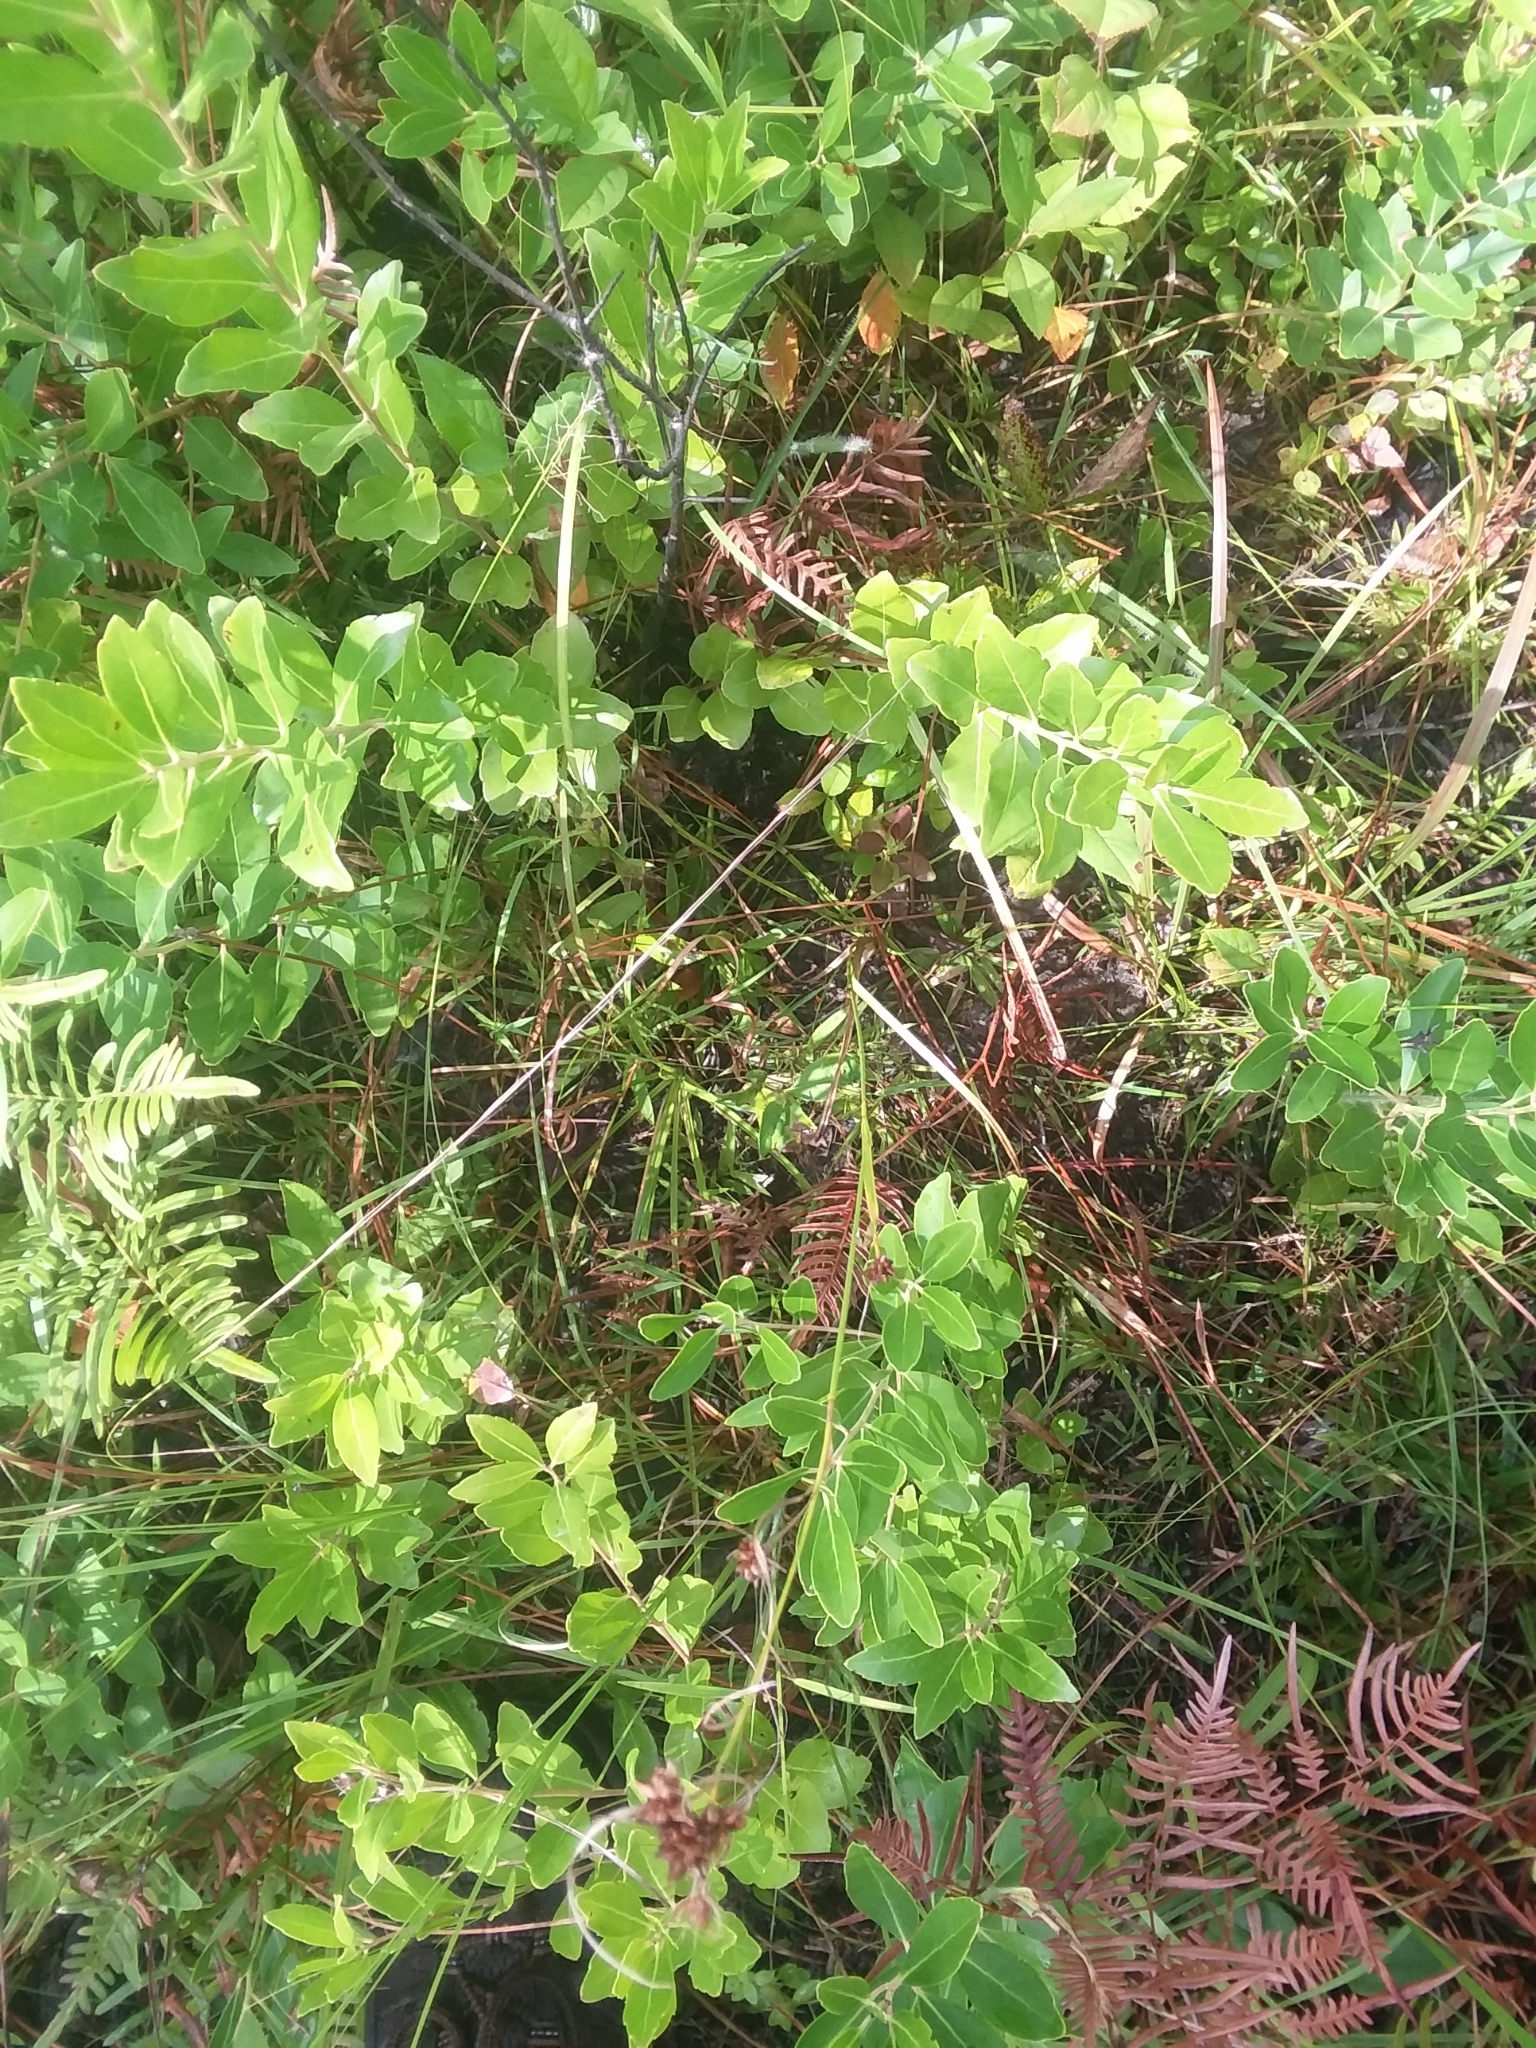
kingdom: Plantae
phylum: Tracheophyta
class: Liliopsida
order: Poales
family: Cyperaceae
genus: Rhynchospora
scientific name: Rhynchospora recognita
